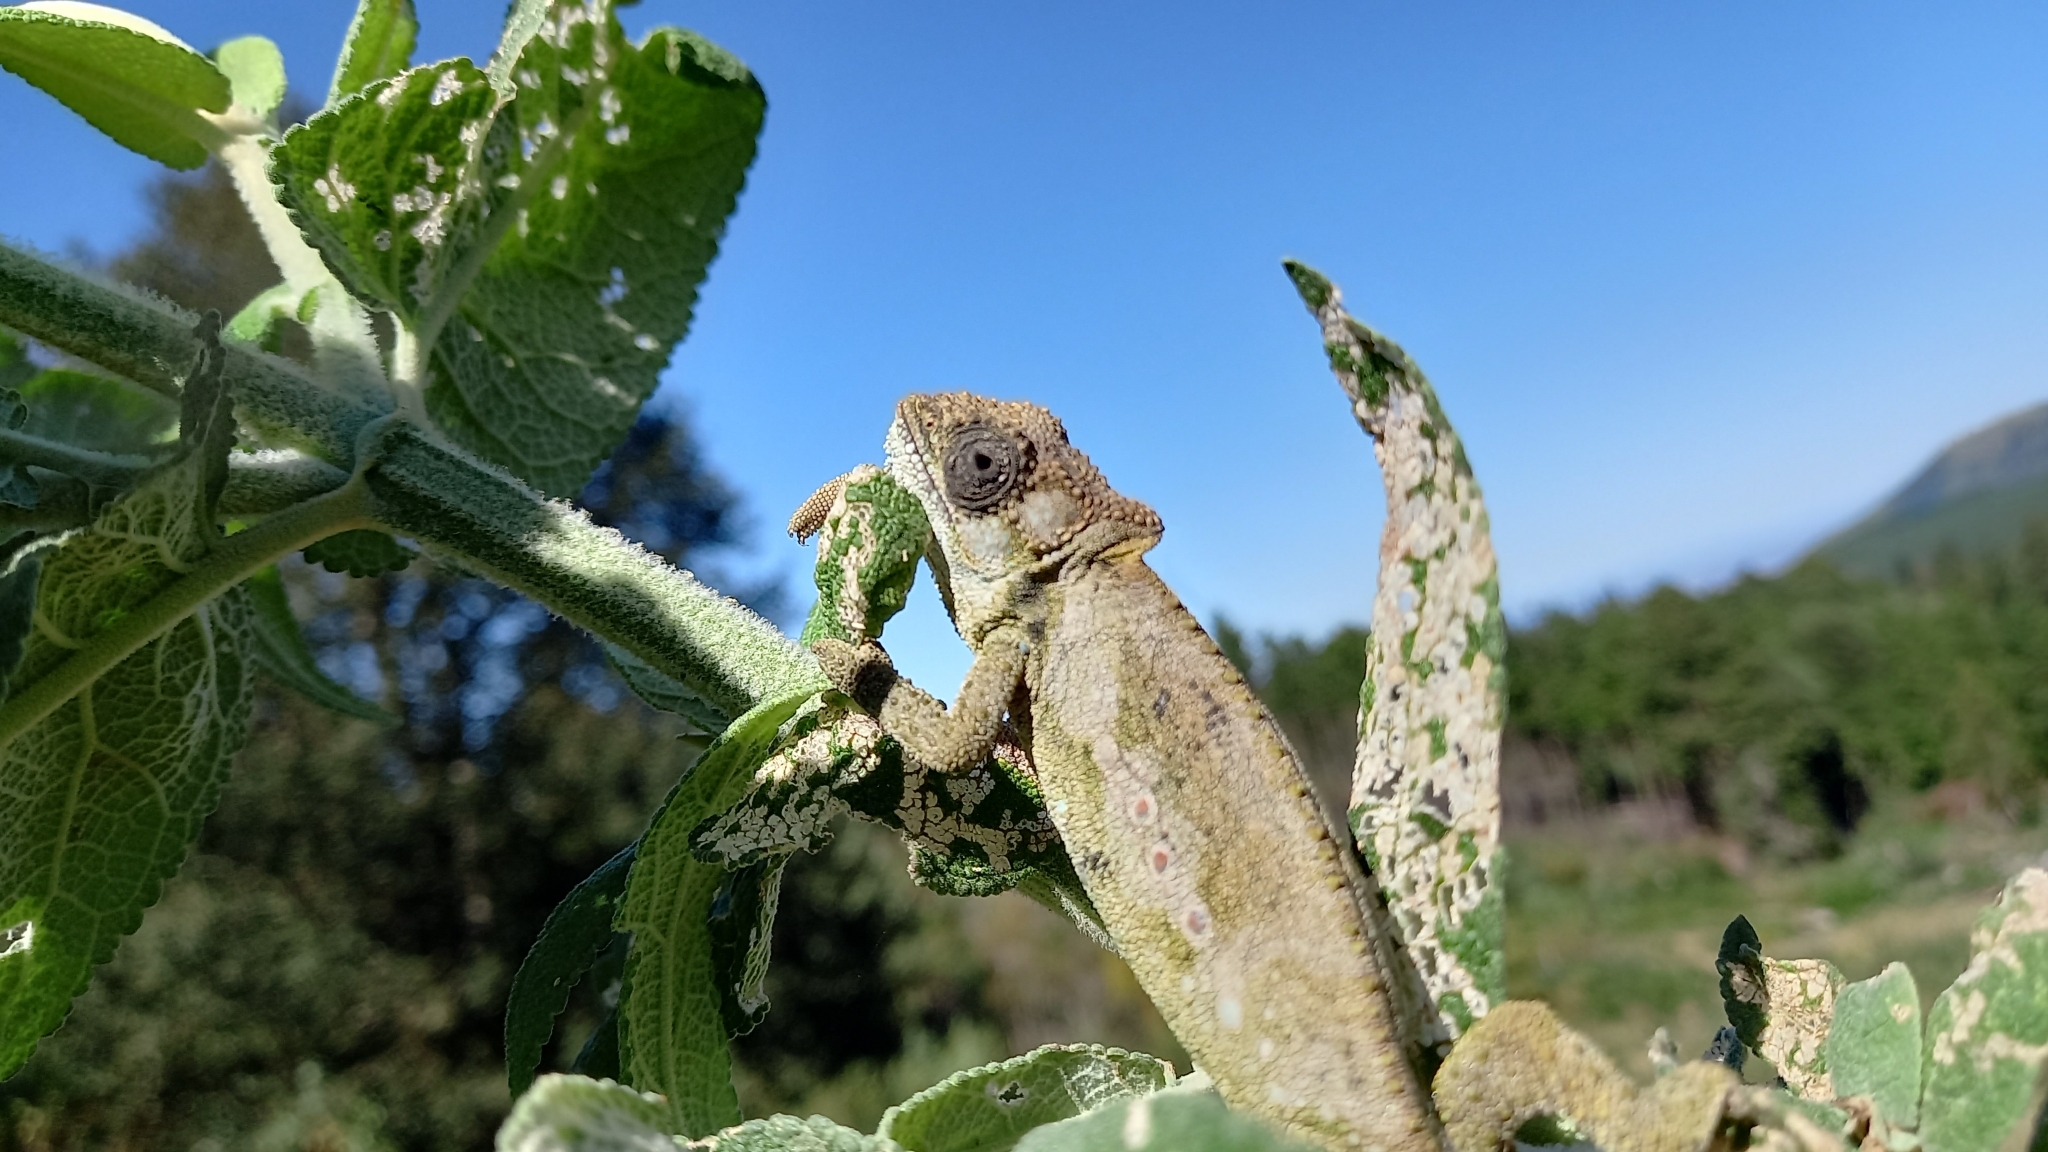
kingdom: Animalia
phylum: Chordata
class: Squamata
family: Chamaeleonidae
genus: Bradypodion
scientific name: Bradypodion ventrale
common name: Eastern cape dwarf chameleon
